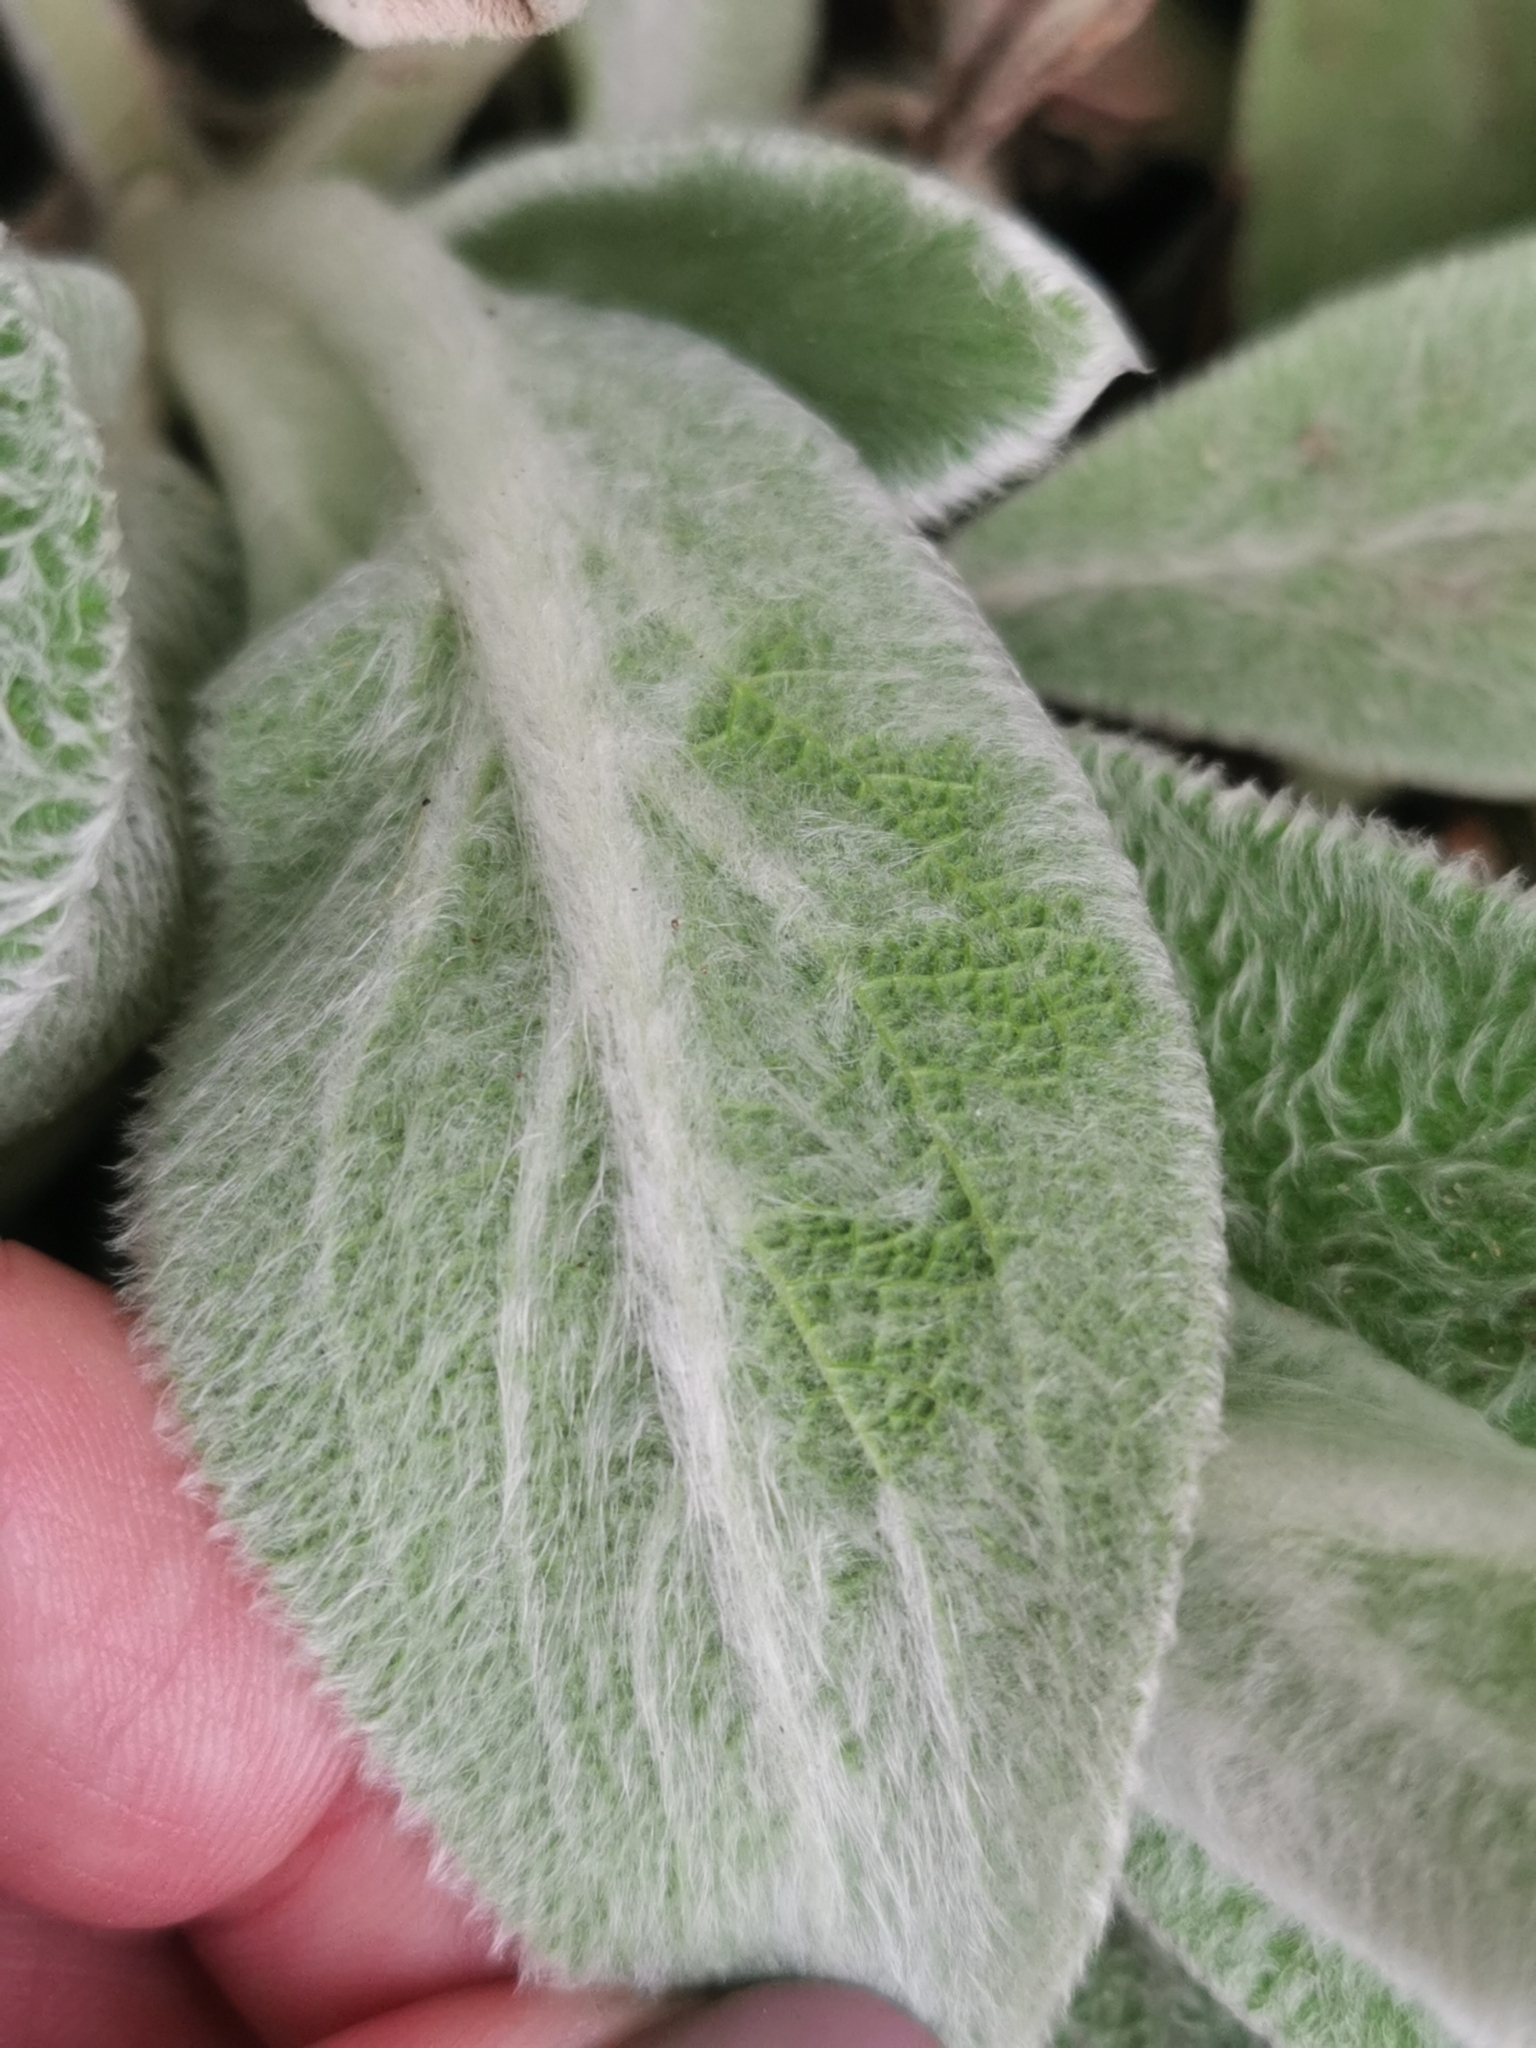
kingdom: Animalia
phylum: Arthropoda
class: Insecta
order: Hymenoptera
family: Megachilidae
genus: Anthidium
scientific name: Anthidium manicatum
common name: Wool carder bee
